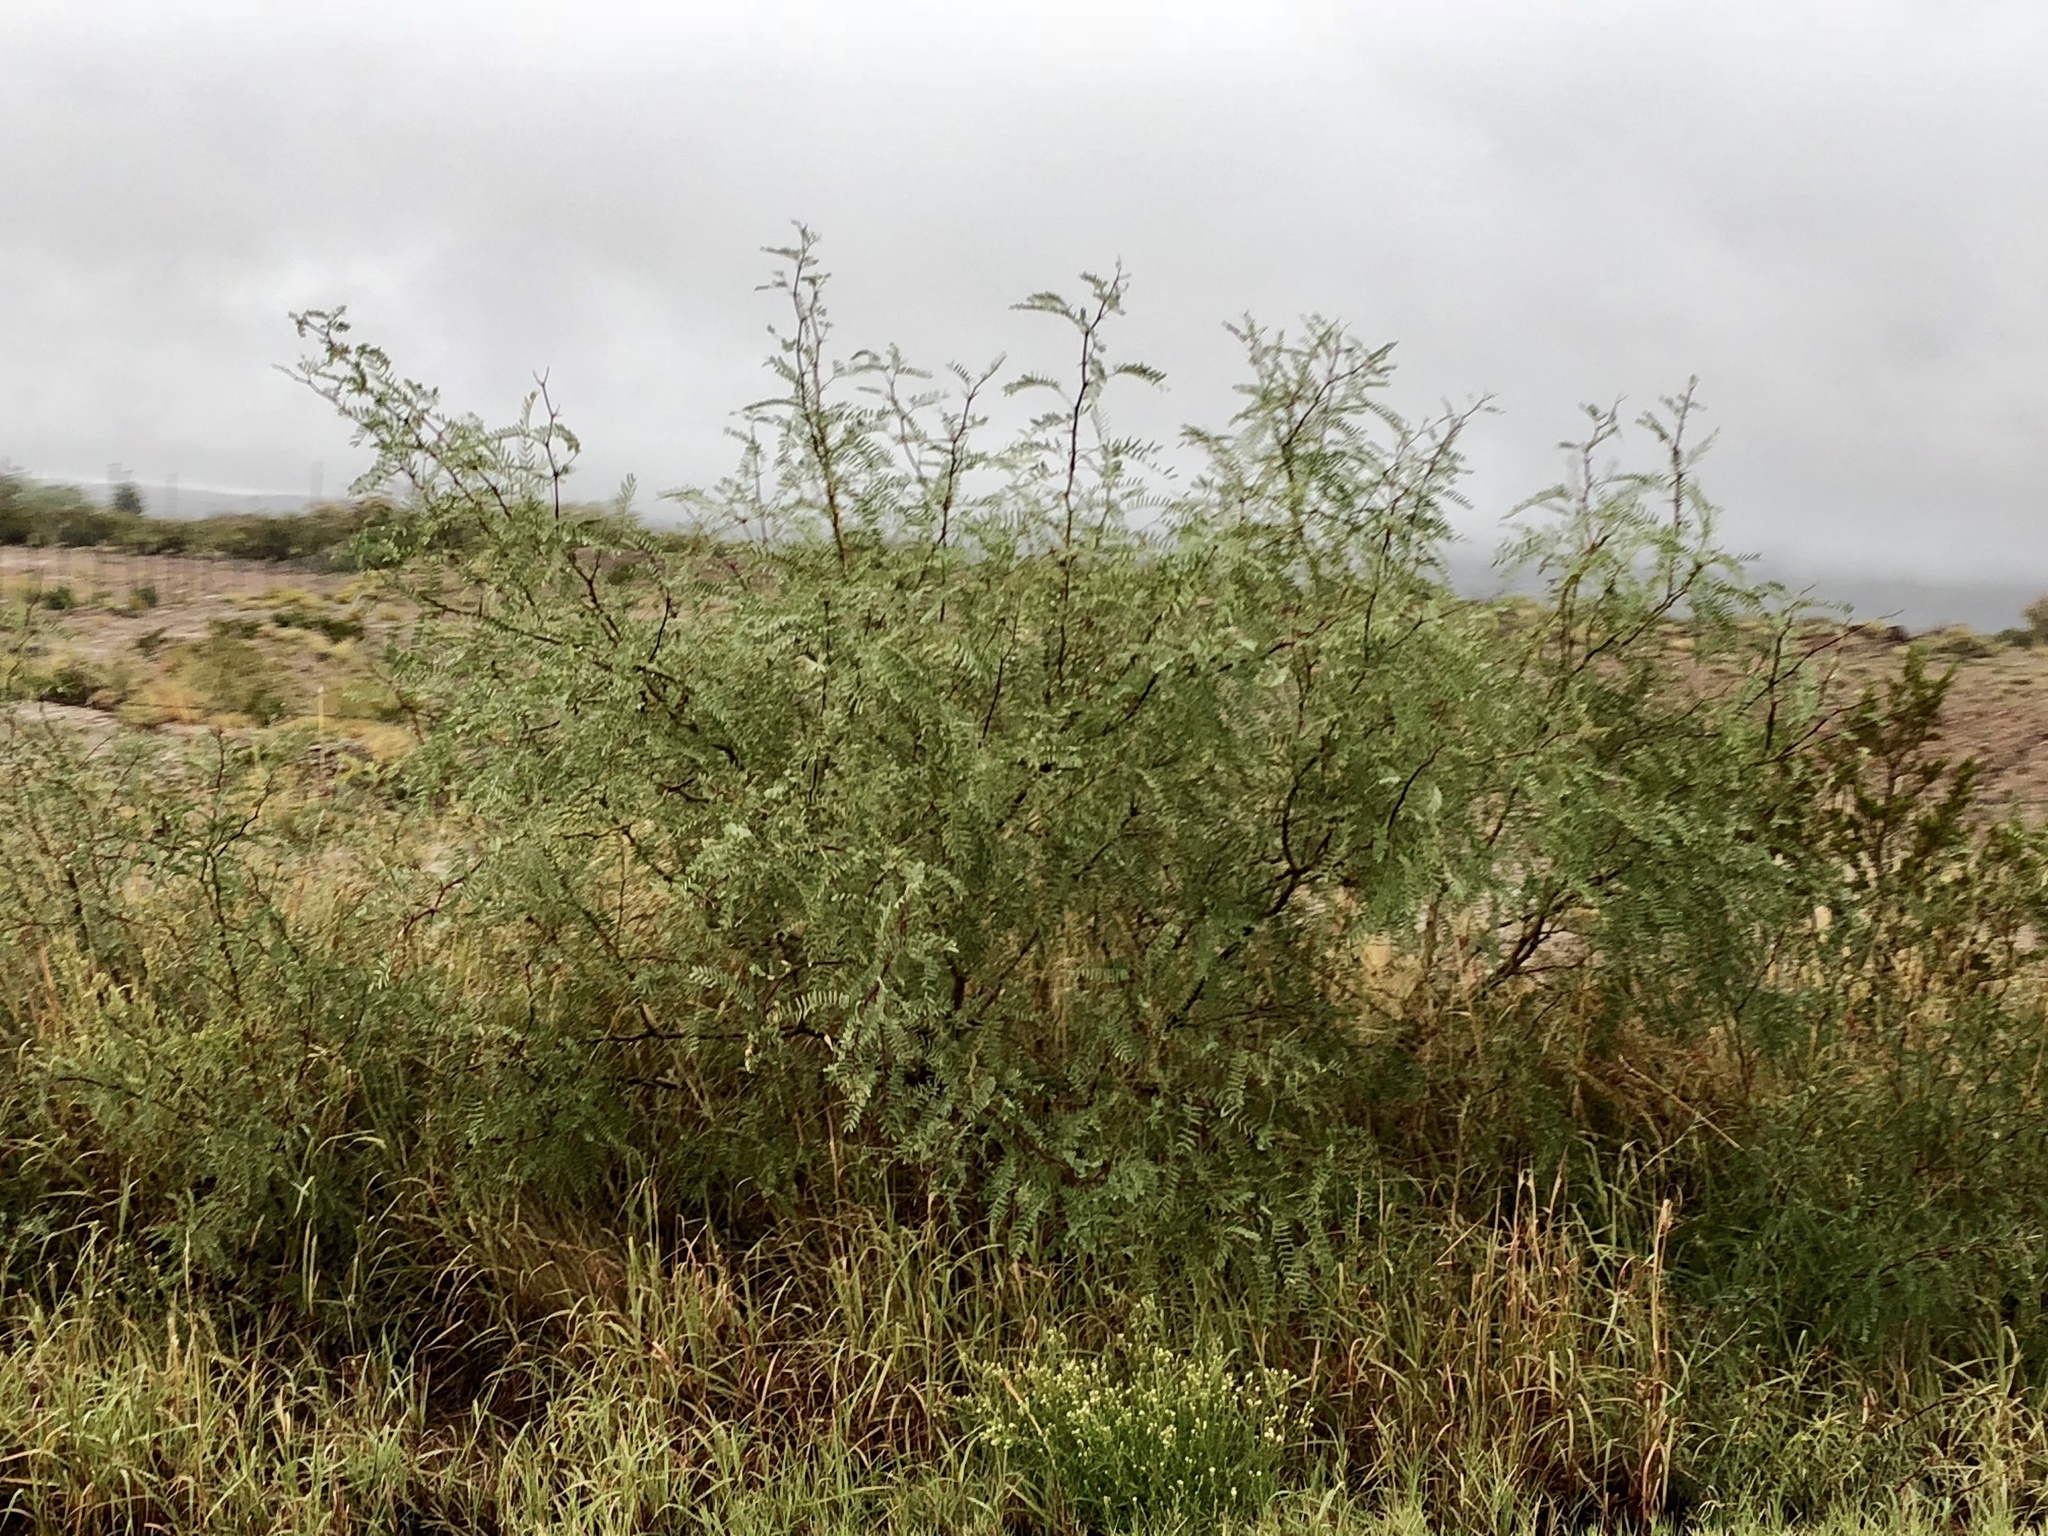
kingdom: Plantae
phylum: Tracheophyta
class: Magnoliopsida
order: Fabales
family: Fabaceae
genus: Prosopis
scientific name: Prosopis glandulosa
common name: Honey mesquite
